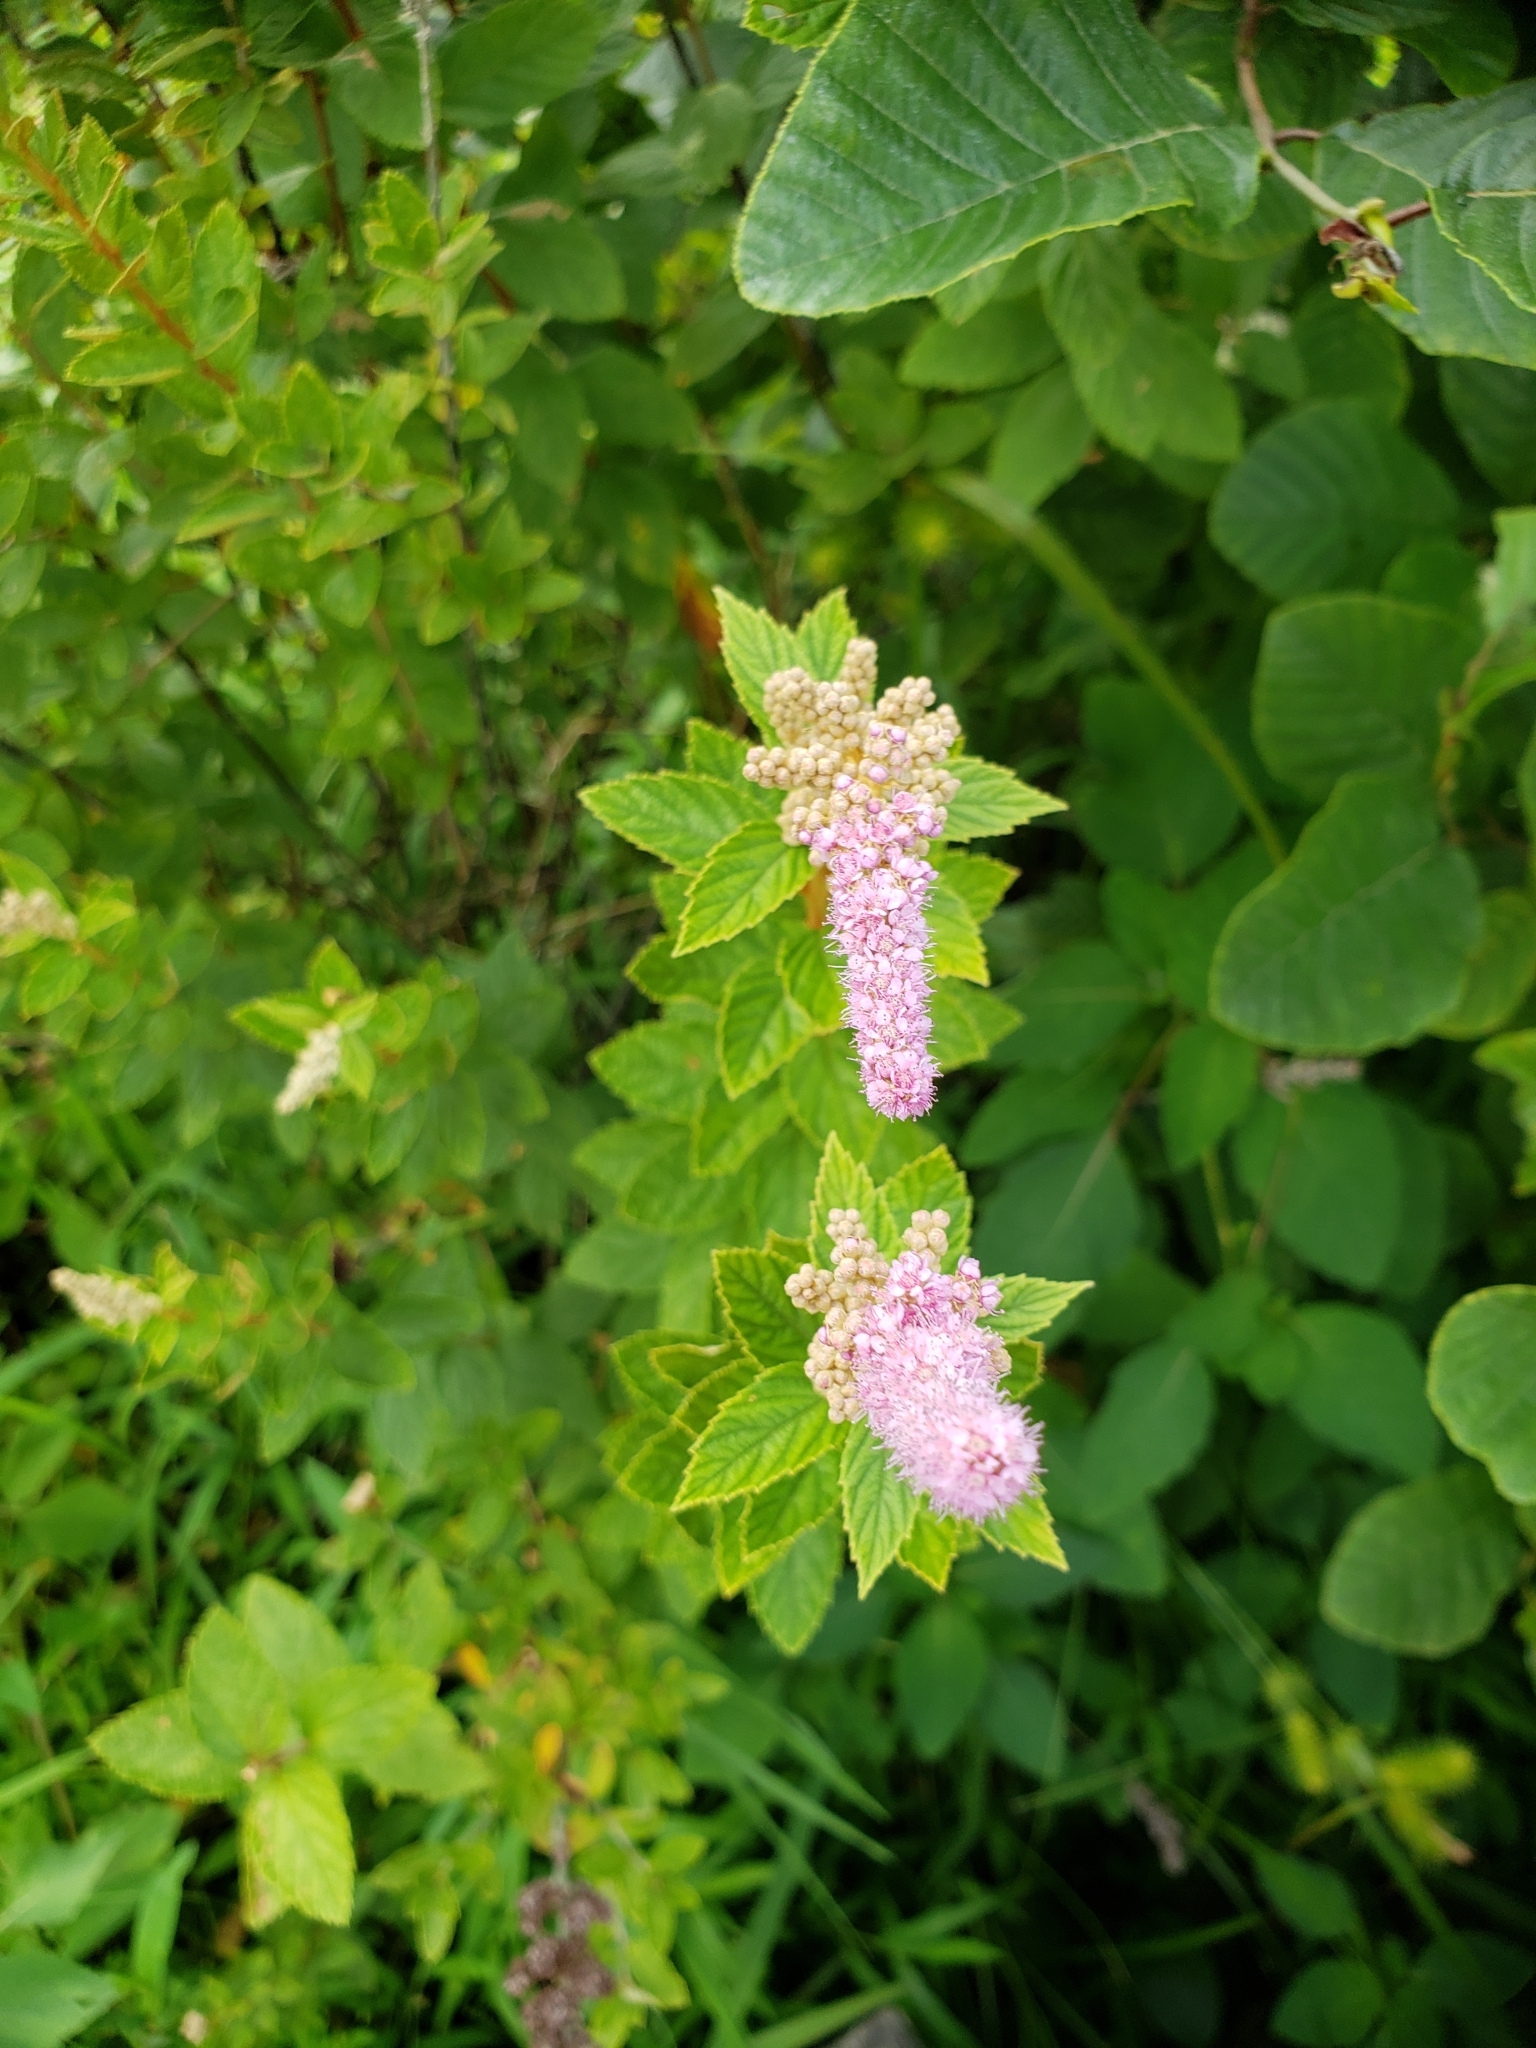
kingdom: Plantae
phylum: Tracheophyta
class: Magnoliopsida
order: Rosales
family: Rosaceae
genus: Spiraea
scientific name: Spiraea tomentosa
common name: Hardhack
